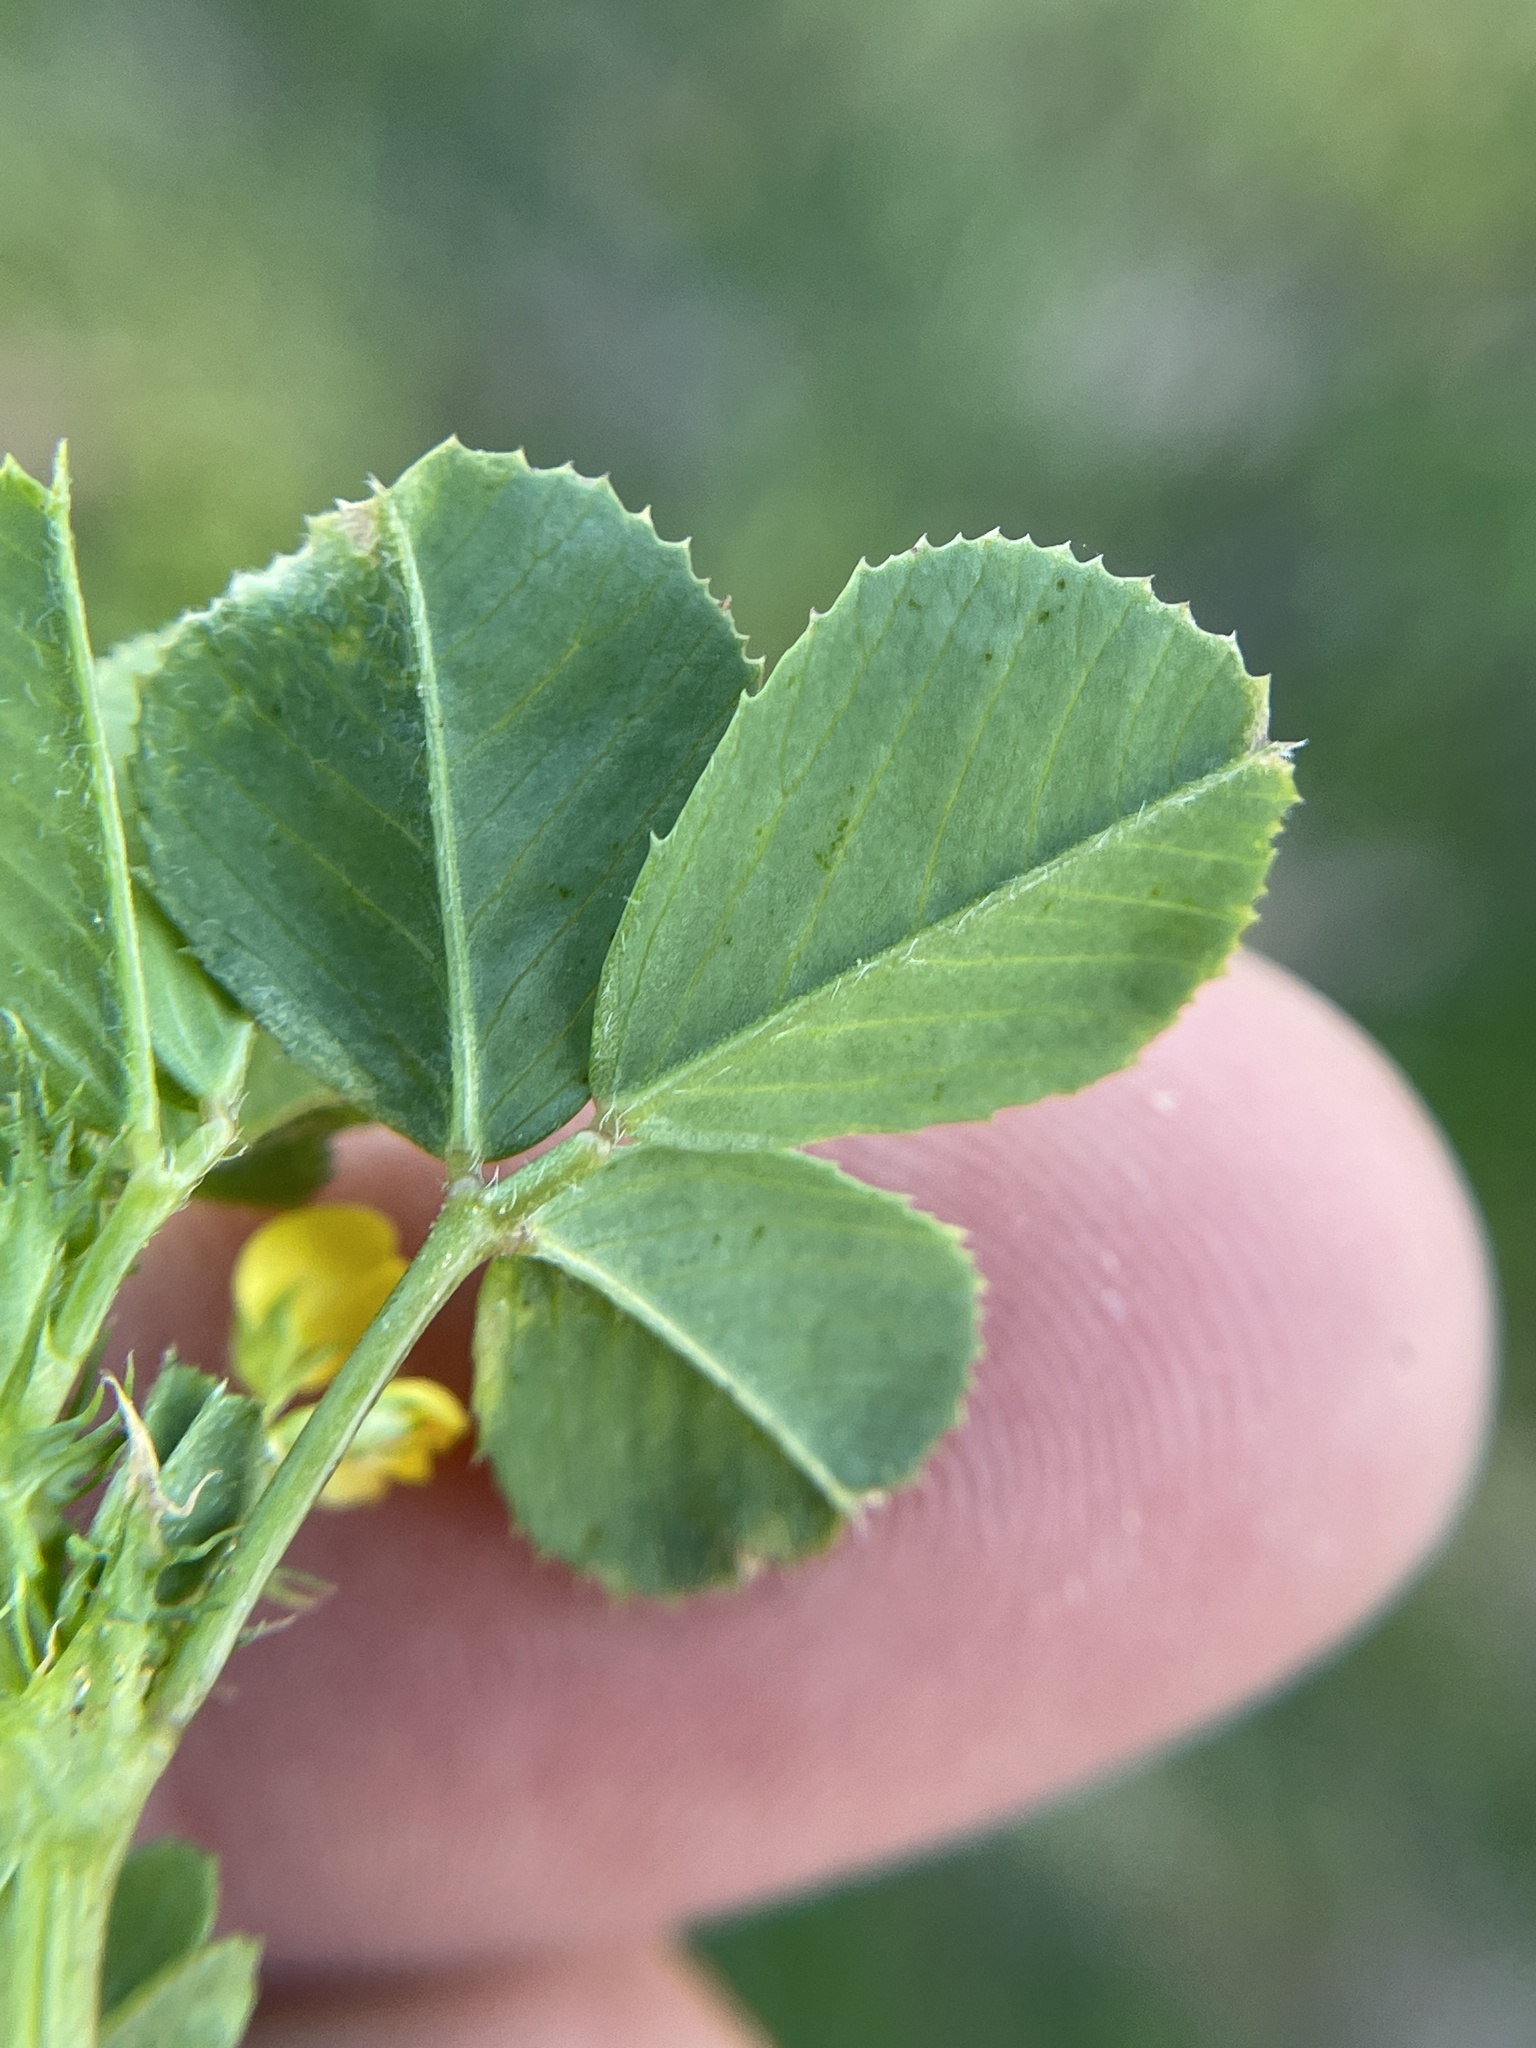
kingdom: Plantae
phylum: Tracheophyta
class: Magnoliopsida
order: Fabales
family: Fabaceae
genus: Medicago
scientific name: Medicago polymorpha
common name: Burclover
